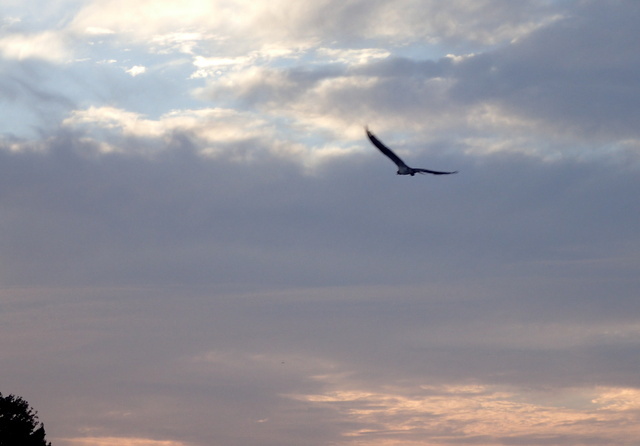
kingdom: Animalia
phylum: Chordata
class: Aves
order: Accipitriformes
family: Pandionidae
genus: Pandion
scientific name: Pandion haliaetus
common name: Osprey
